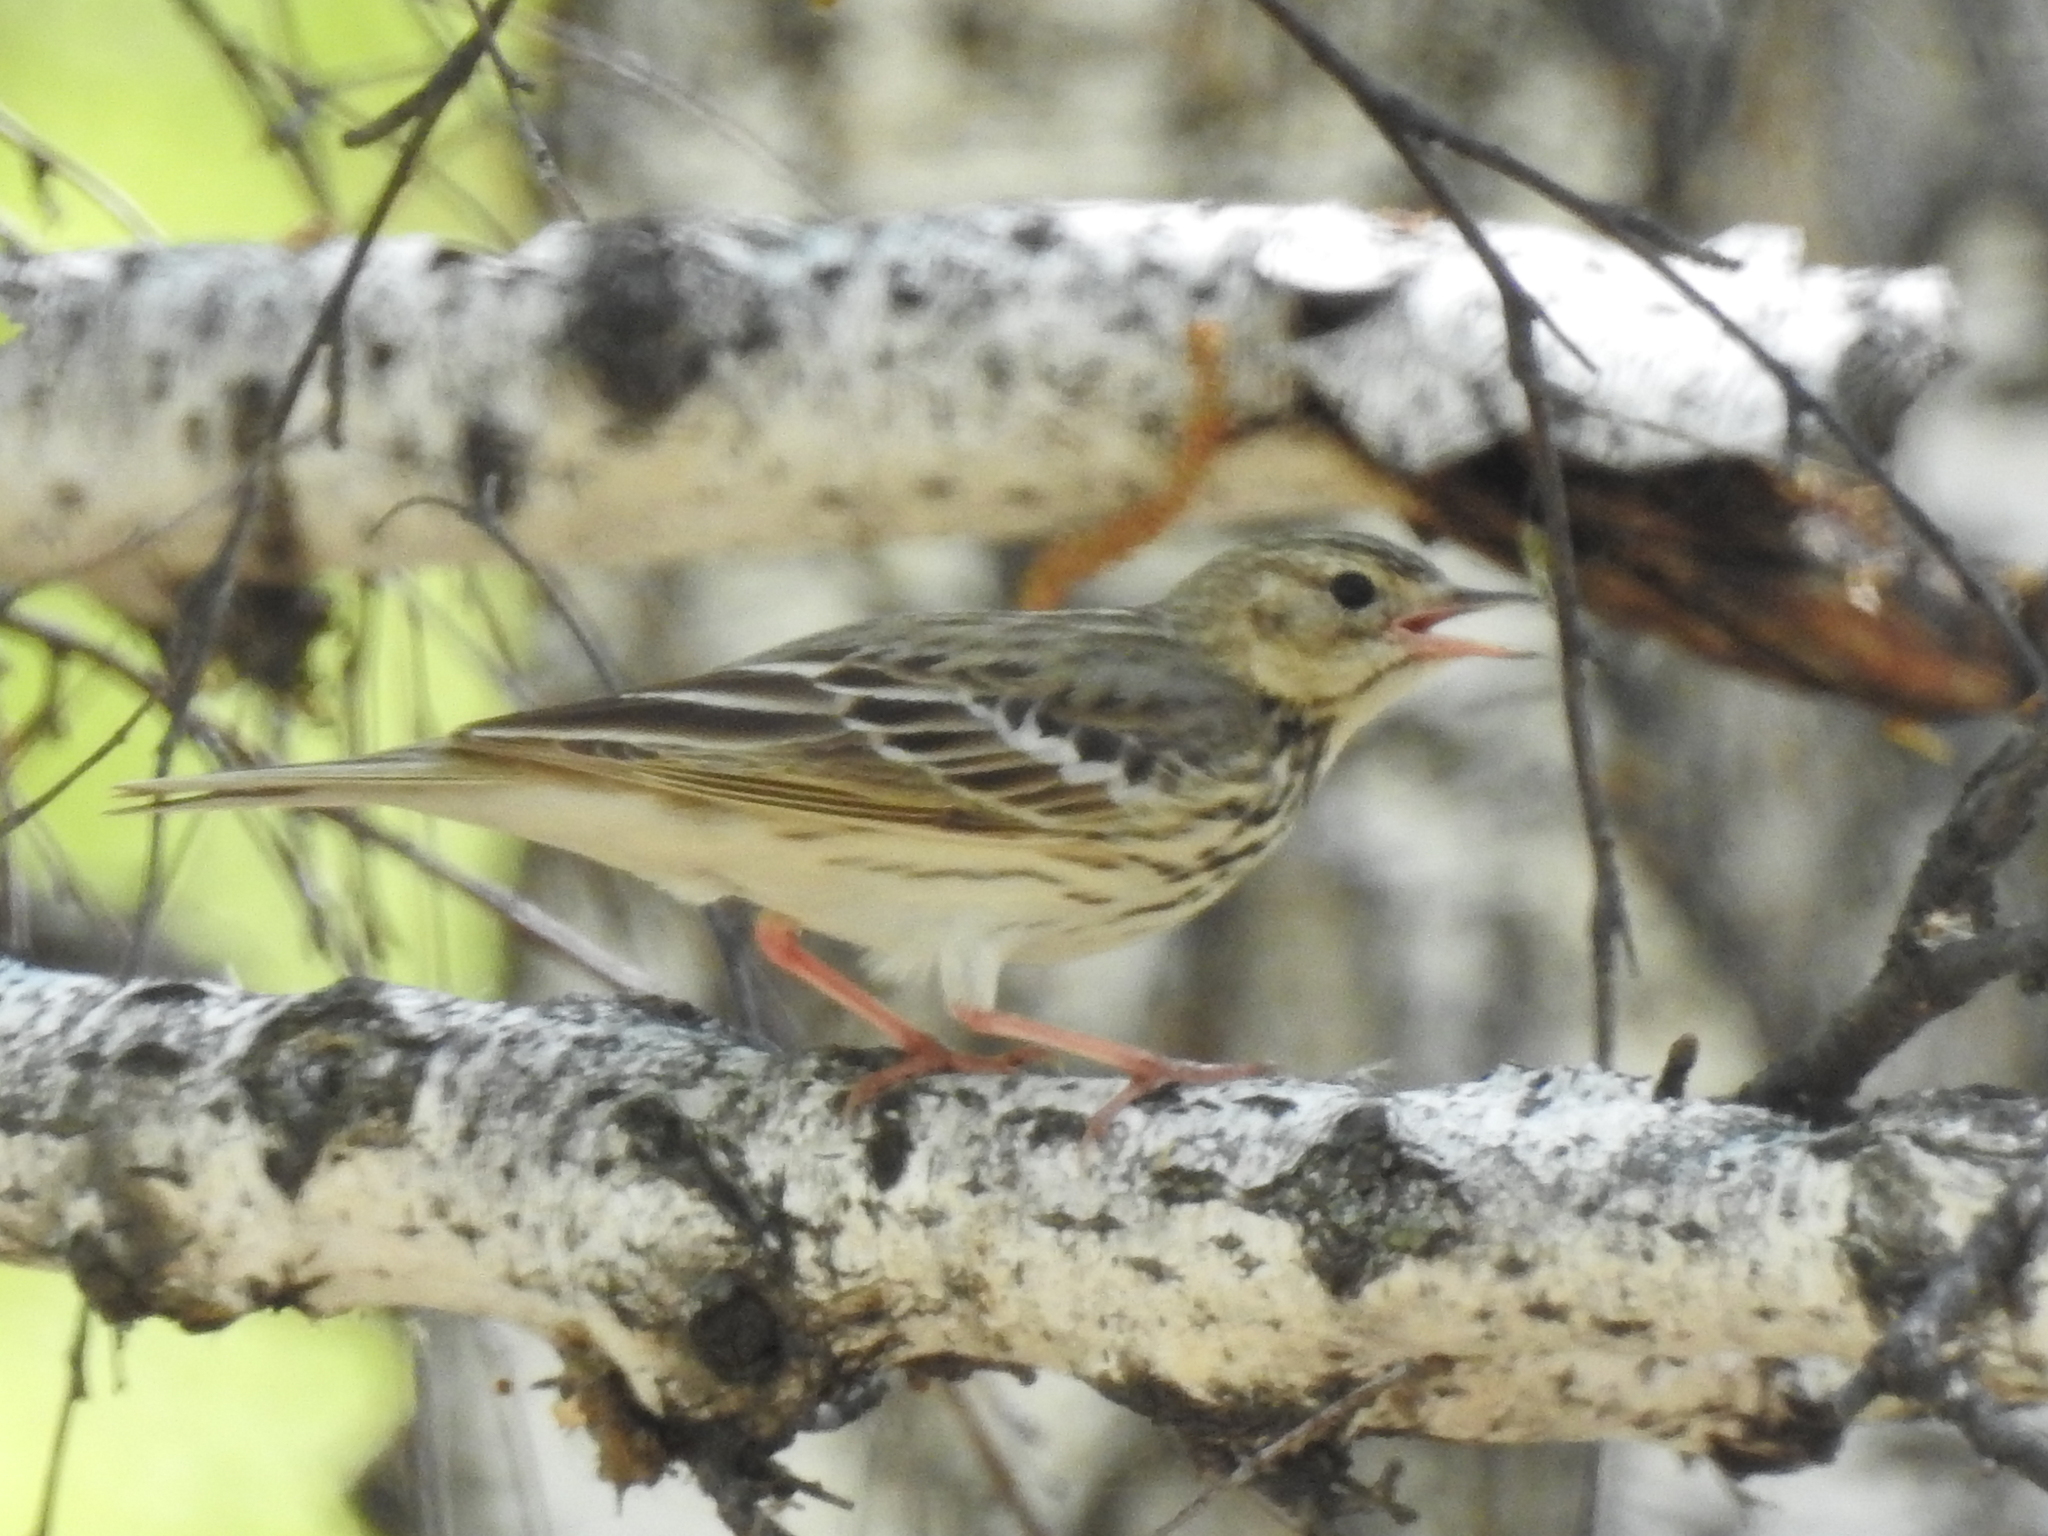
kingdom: Animalia
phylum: Chordata
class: Aves
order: Passeriformes
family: Motacillidae
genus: Anthus
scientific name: Anthus trivialis
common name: Tree pipit
